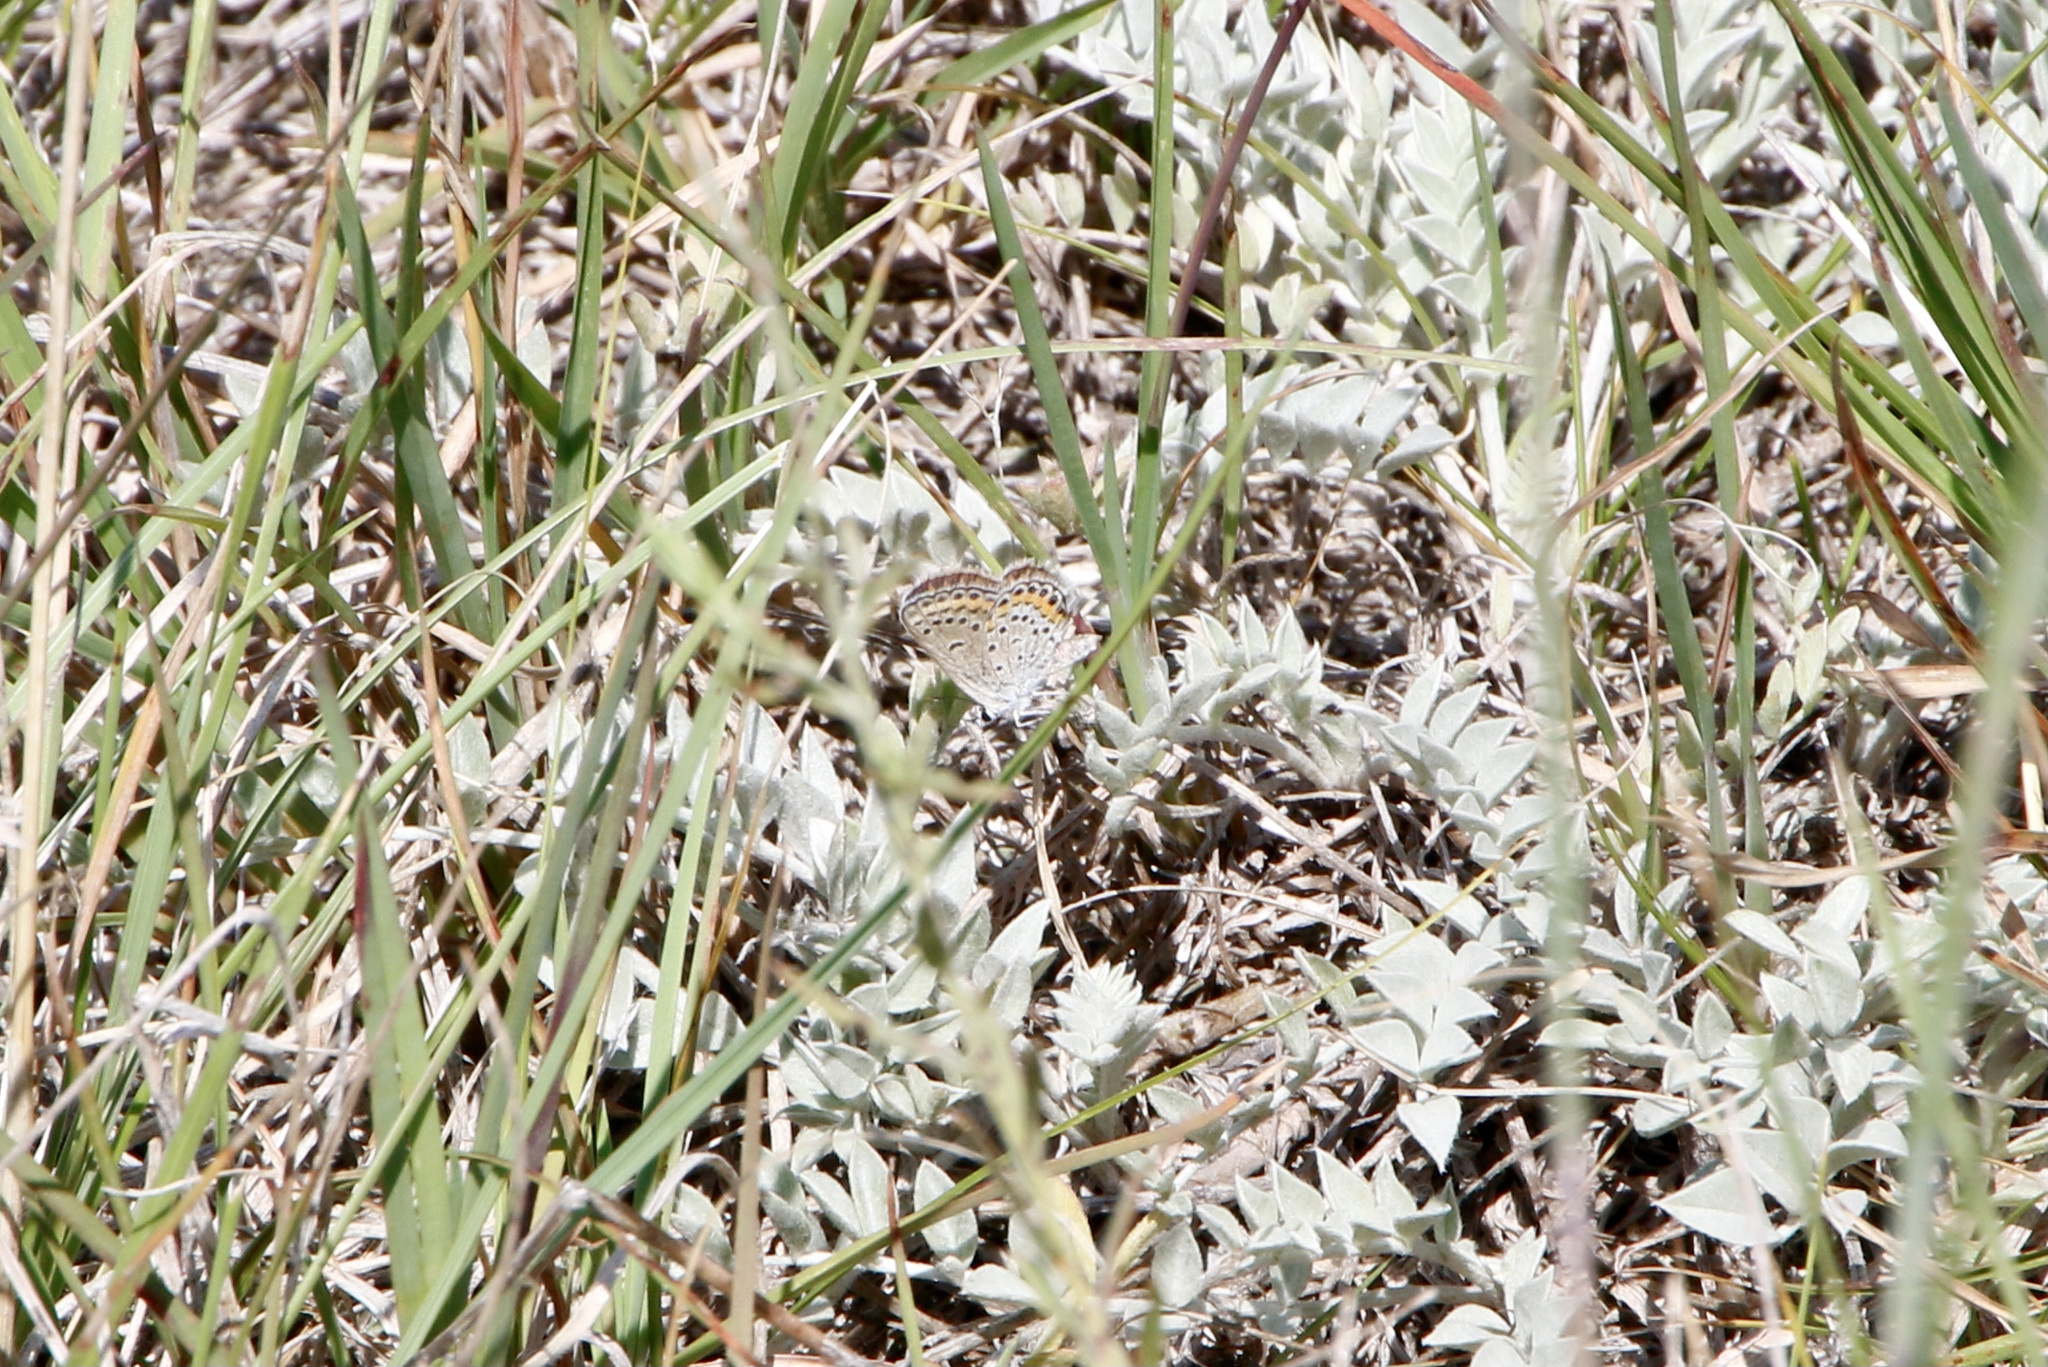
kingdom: Animalia
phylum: Arthropoda
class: Insecta
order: Lepidoptera
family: Lycaenidae
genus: Lycaeides
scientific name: Lycaeides melissa
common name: Melissa blue
